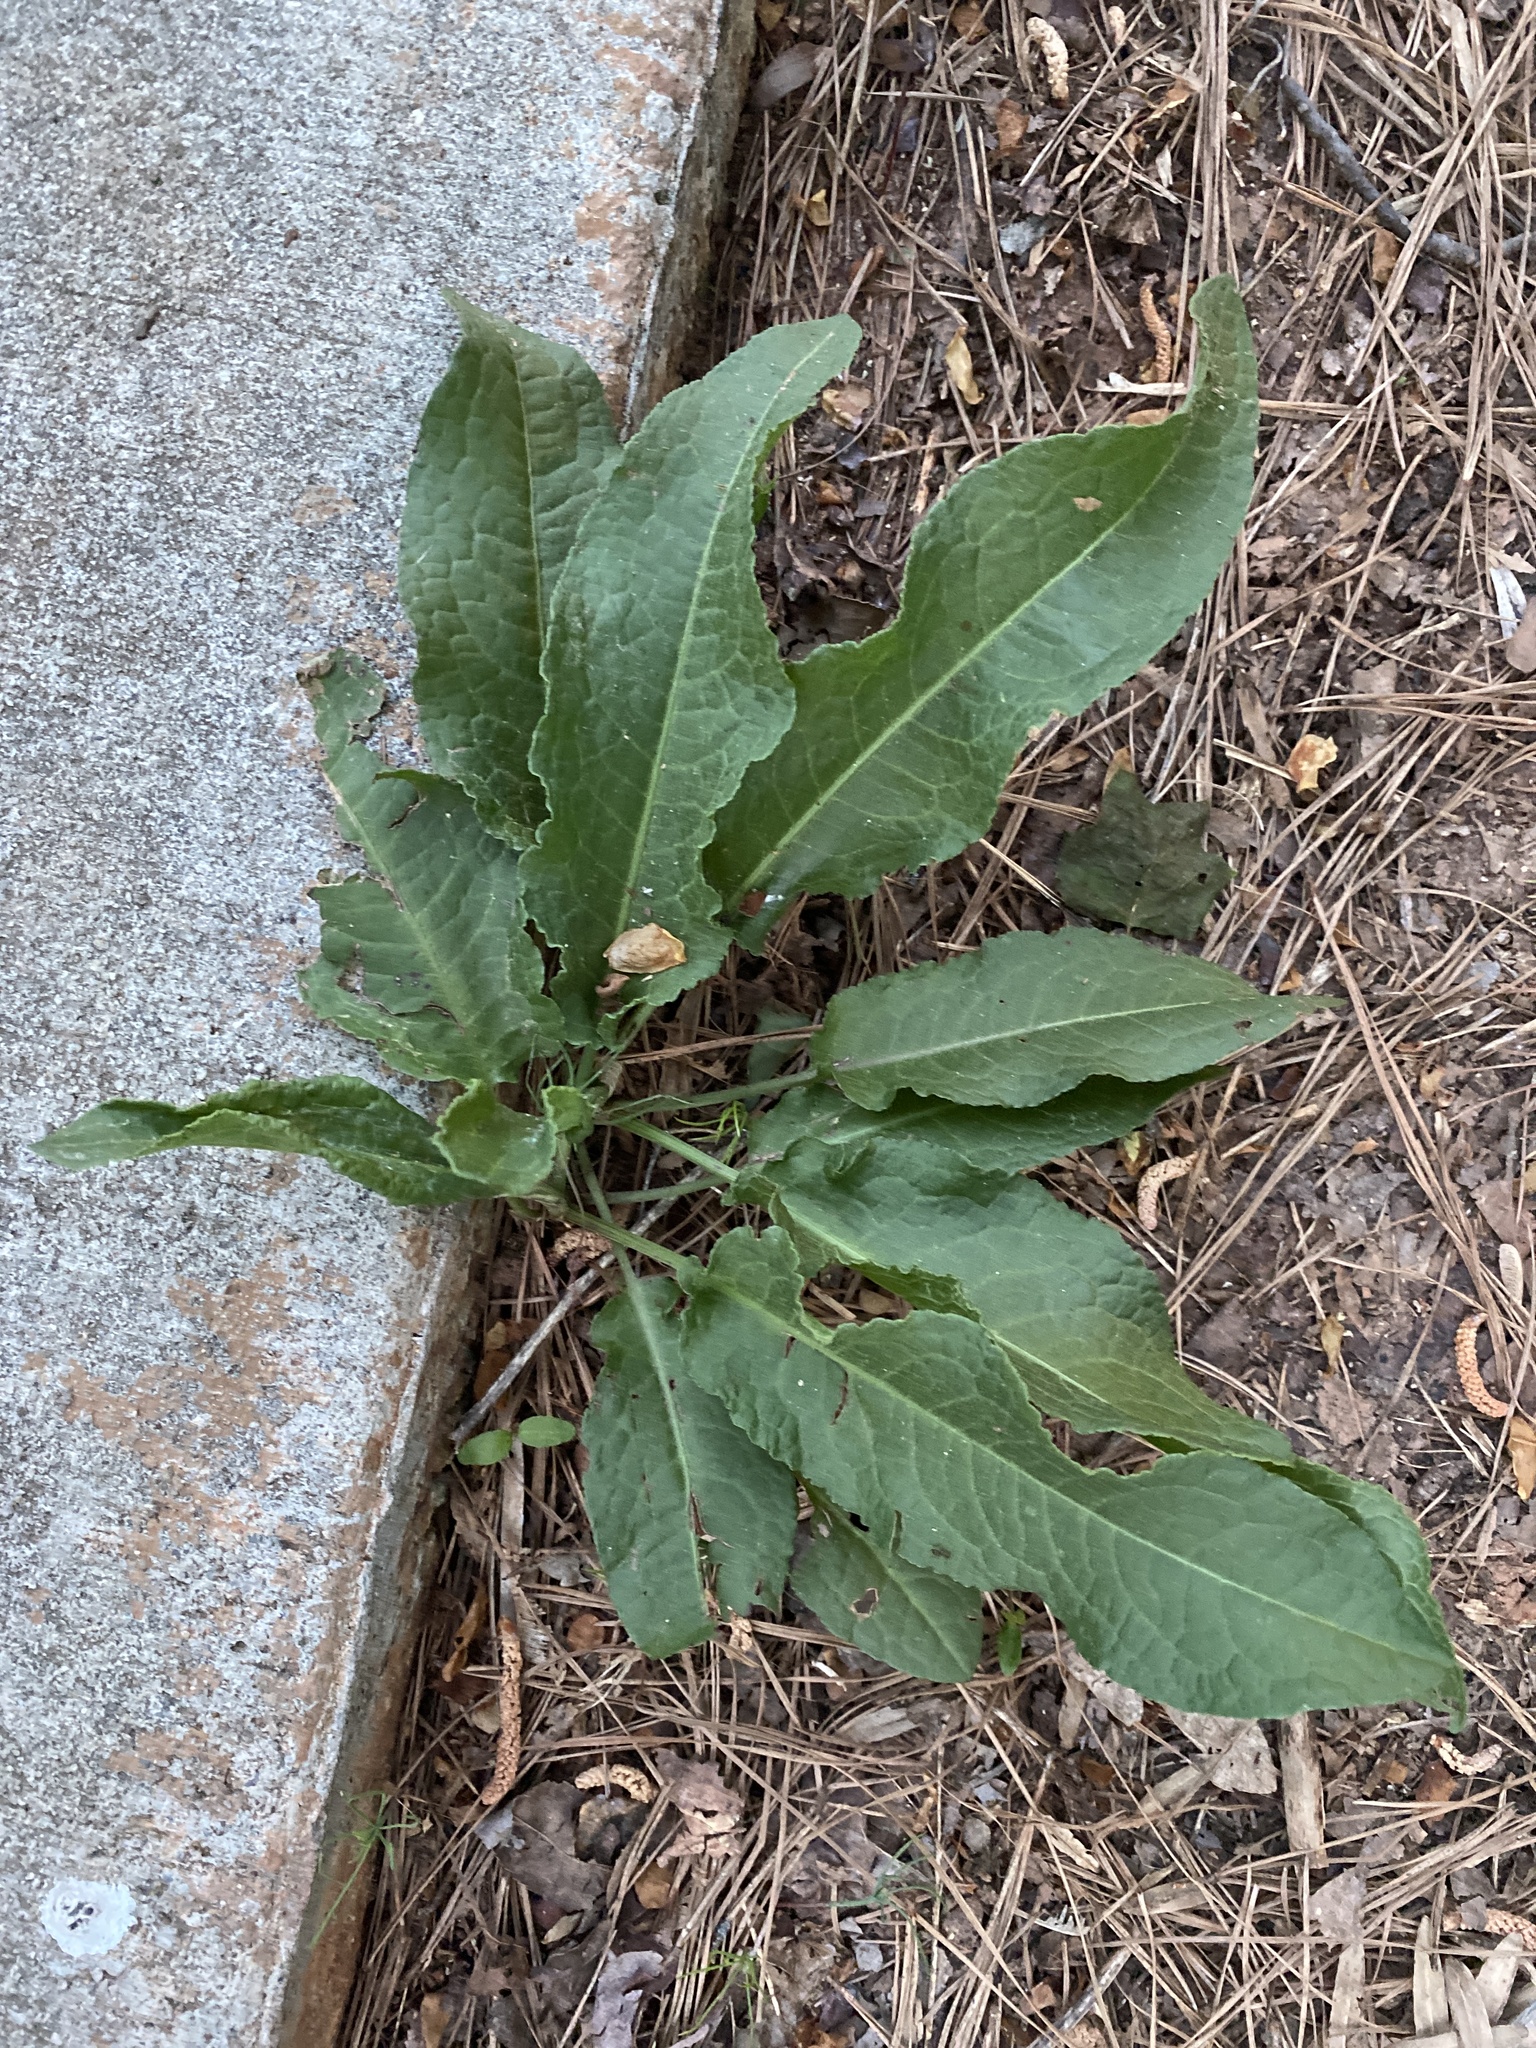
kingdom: Plantae
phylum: Tracheophyta
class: Magnoliopsida
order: Caryophyllales
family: Polygonaceae
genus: Rumex
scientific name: Rumex crispus
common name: Curled dock
